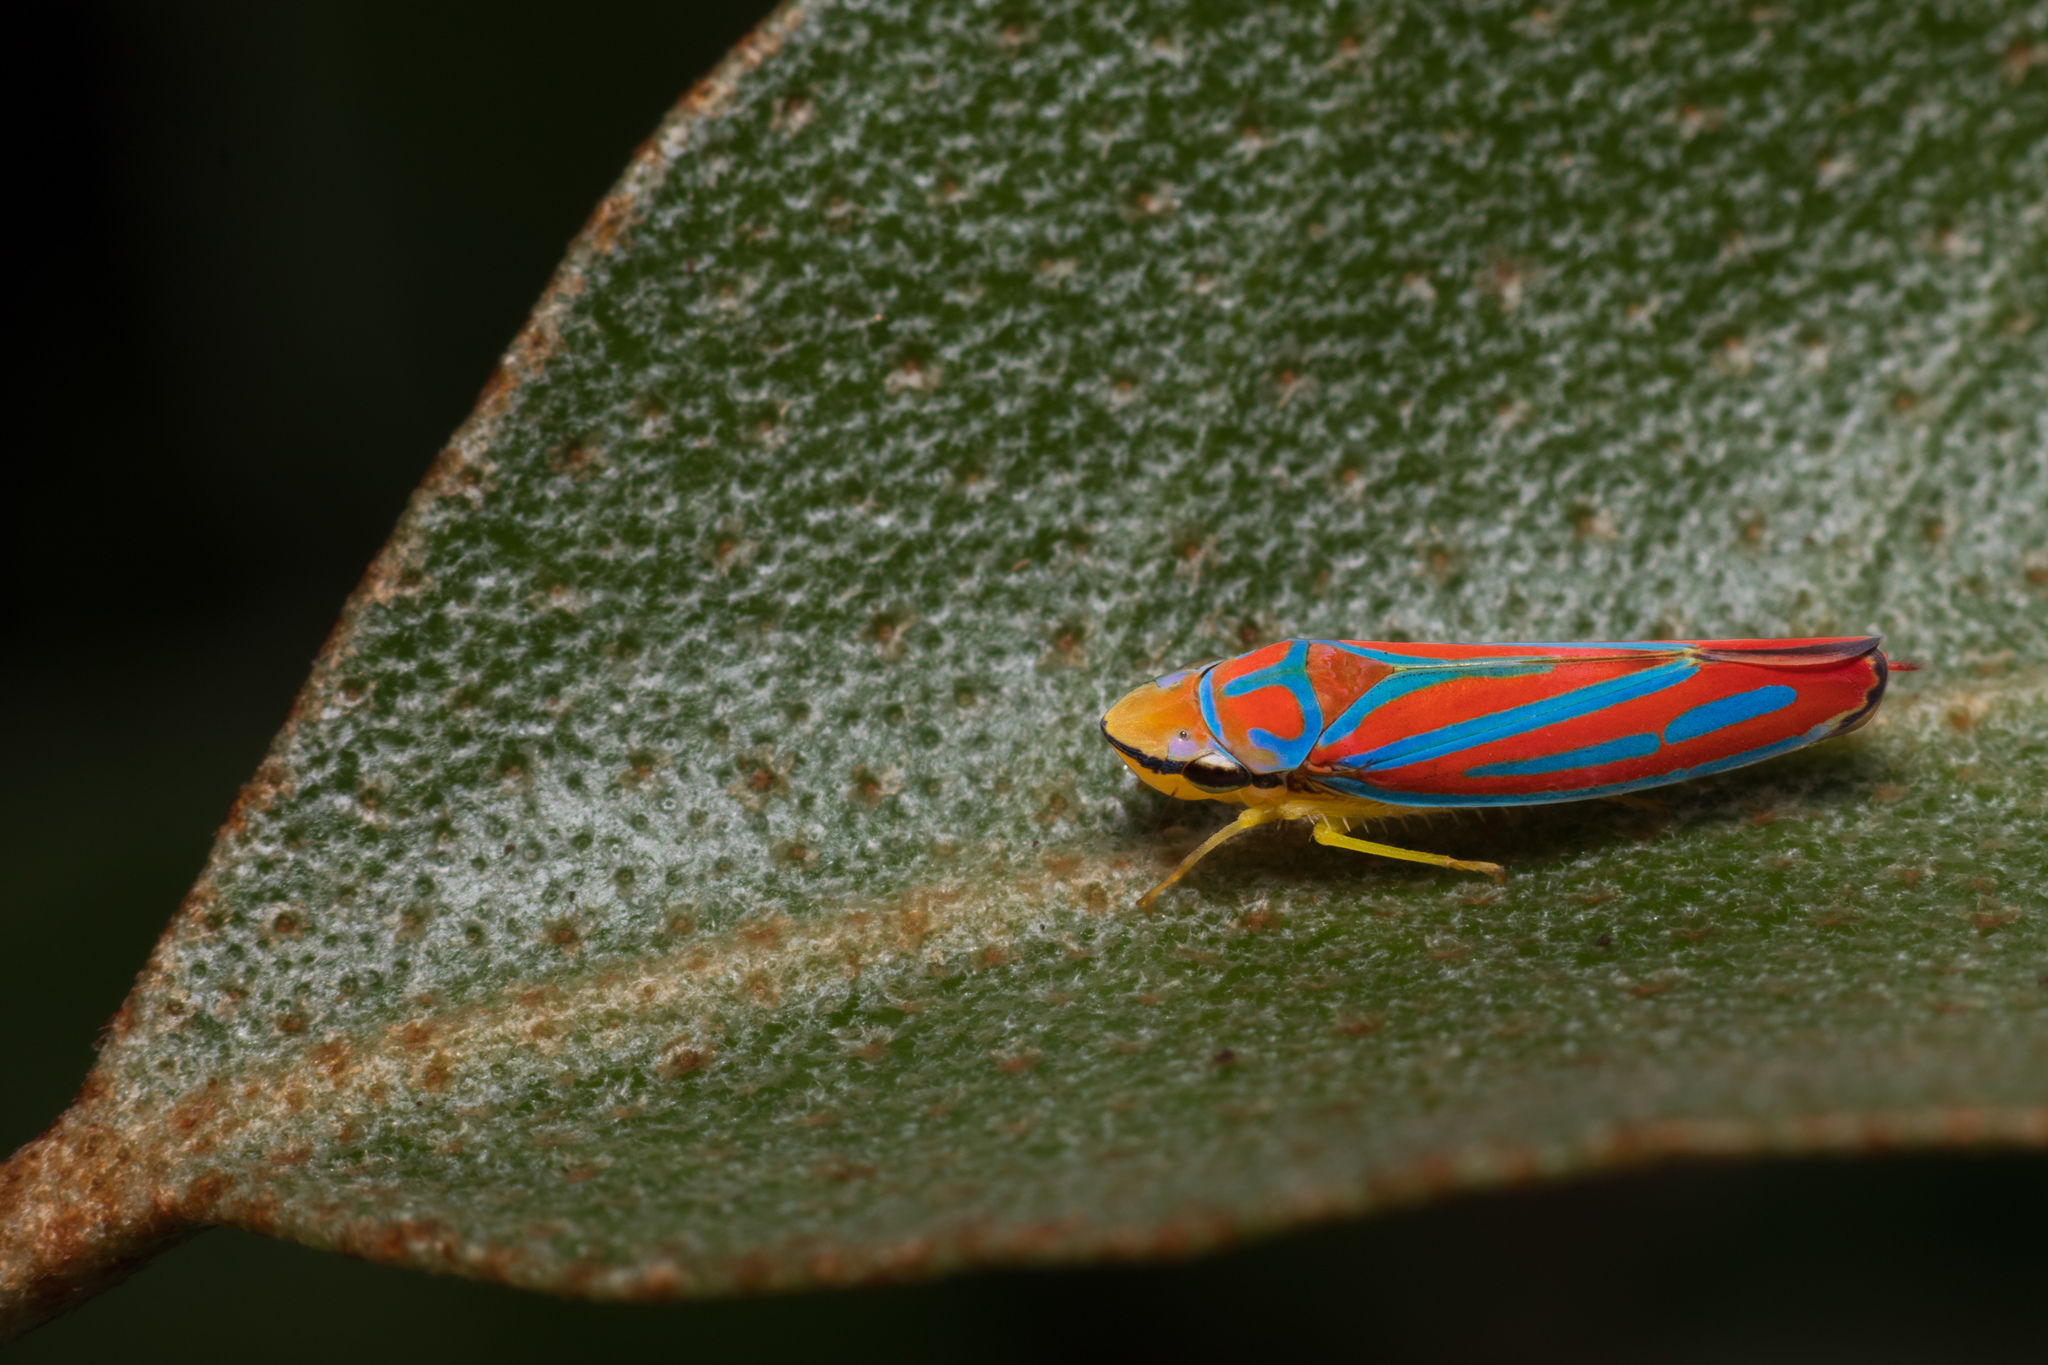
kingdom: Animalia
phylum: Arthropoda
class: Insecta
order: Hemiptera
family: Cicadellidae
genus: Graphocephala
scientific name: Graphocephala coccinea
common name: Candy-striped leafhopper
